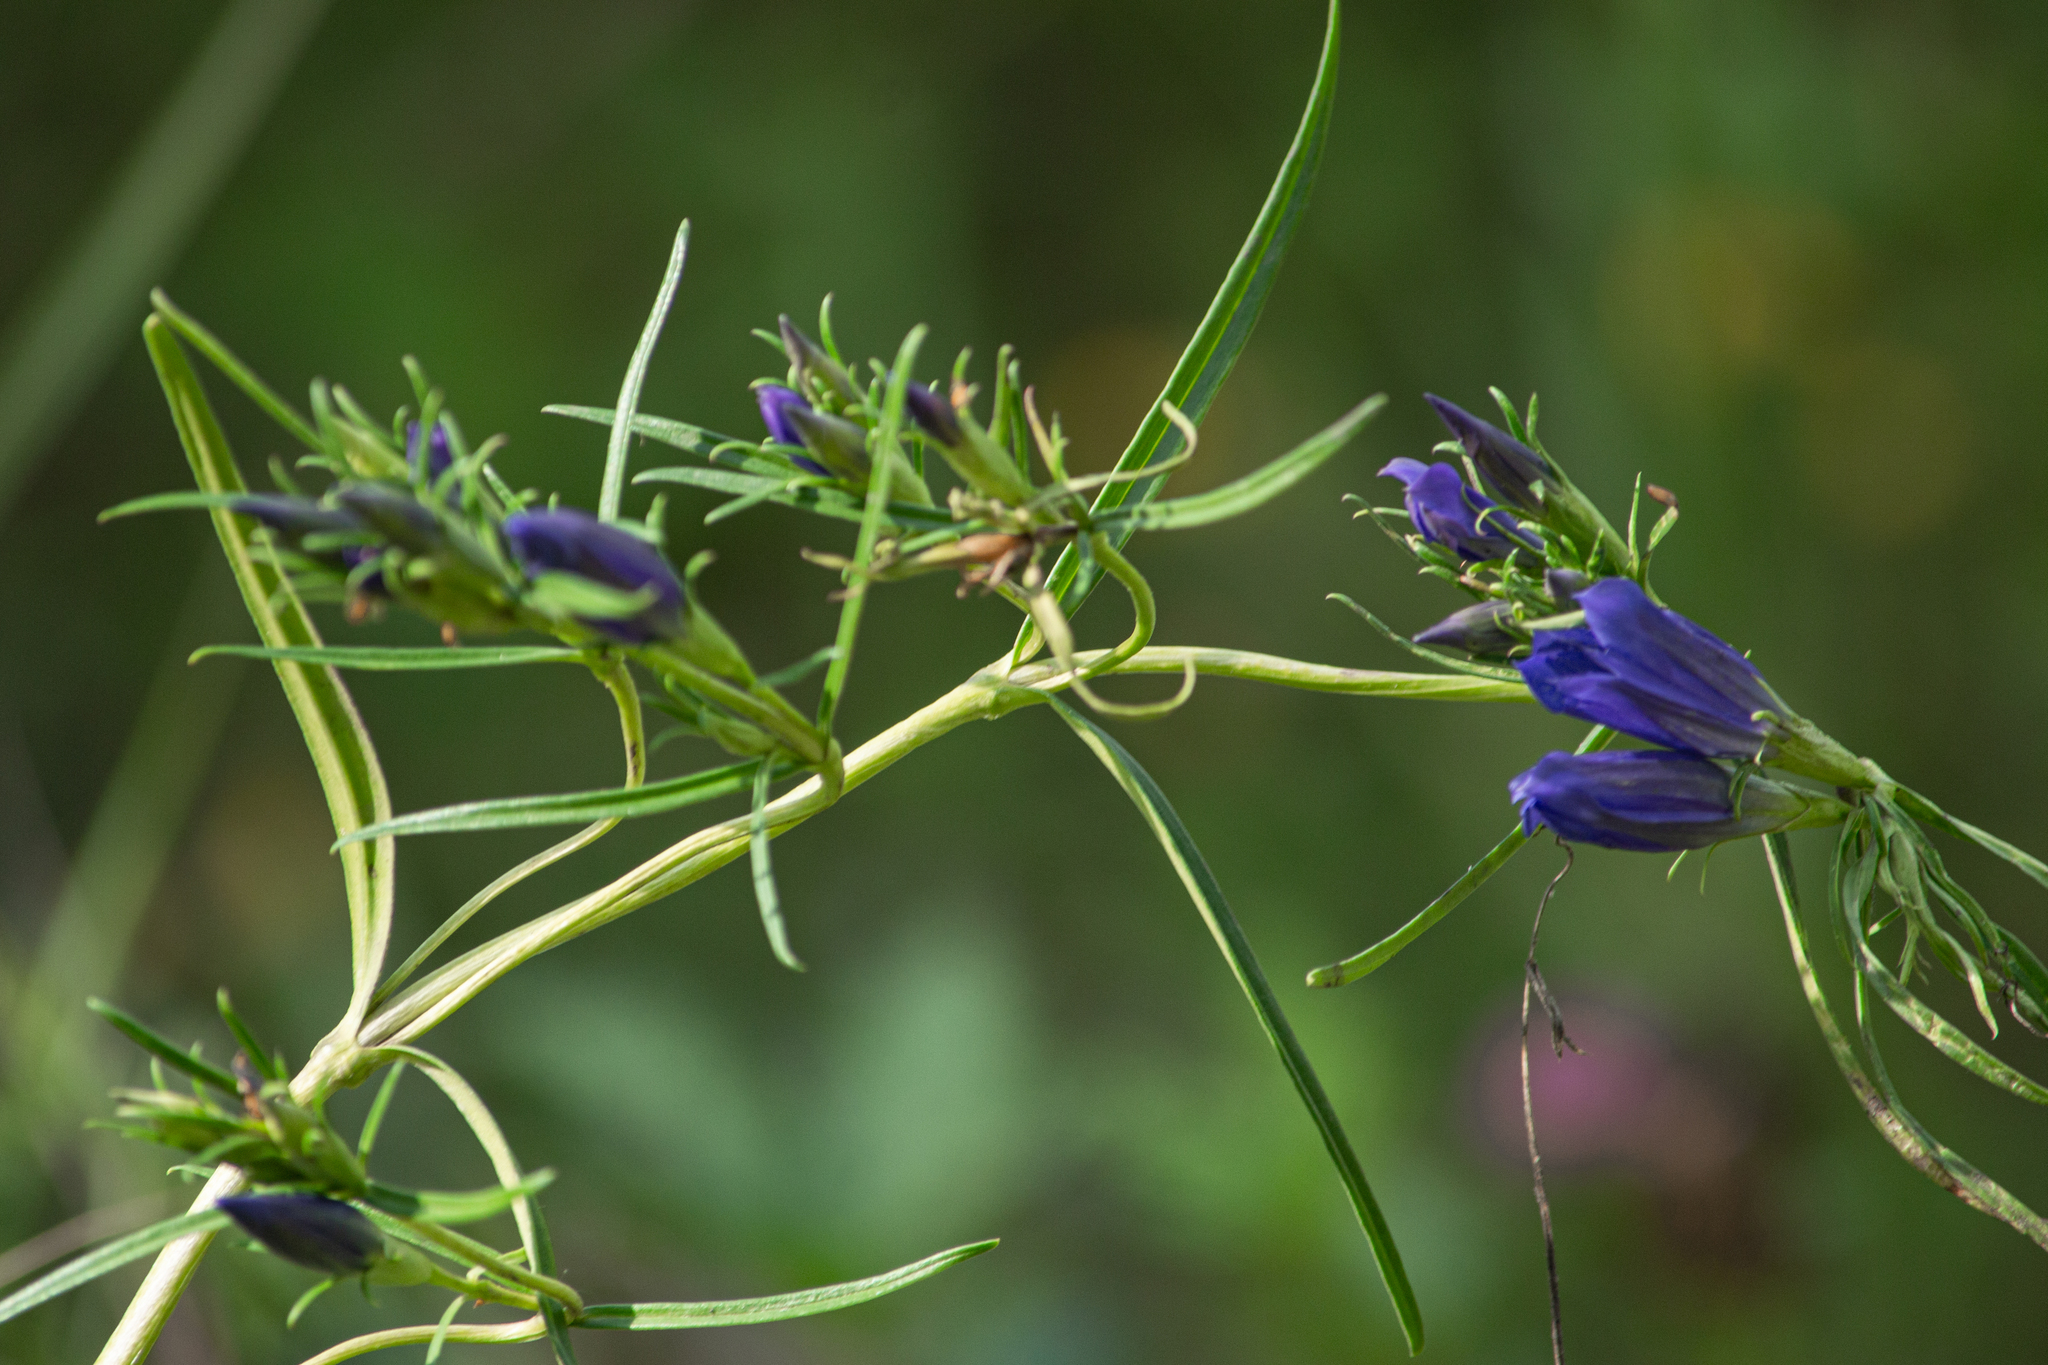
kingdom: Plantae
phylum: Tracheophyta
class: Magnoliopsida
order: Gentianales
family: Gentianaceae
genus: Gentiana
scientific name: Gentiana pneumonanthe
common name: Marsh gentian
